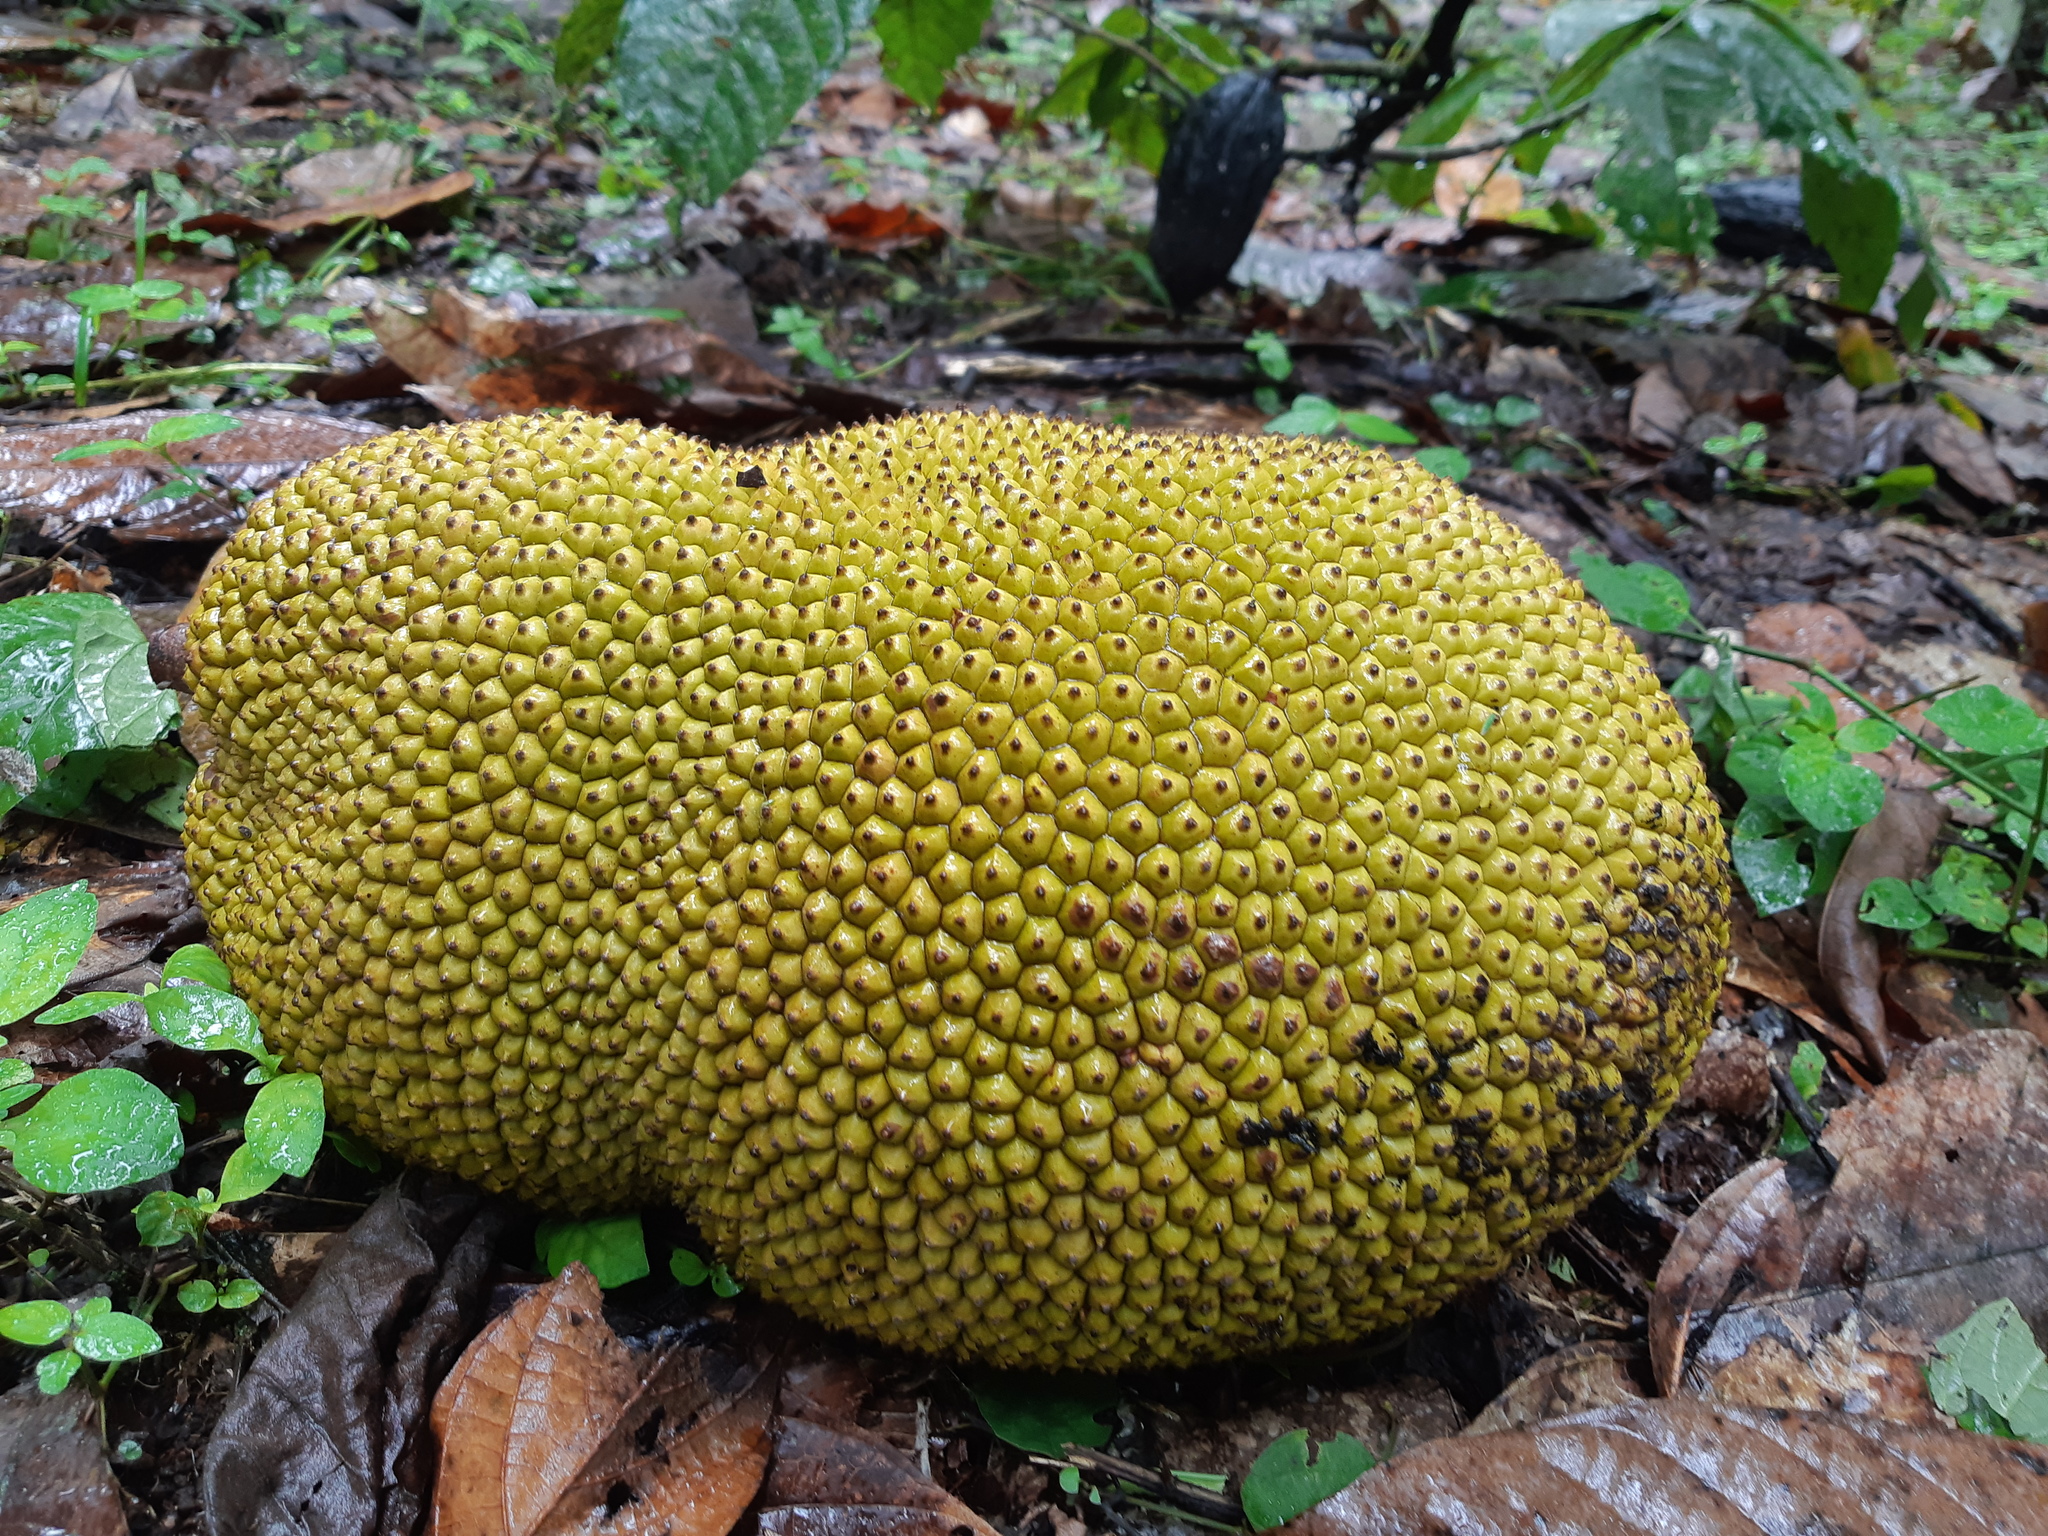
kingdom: Plantae
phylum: Tracheophyta
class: Magnoliopsida
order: Rosales
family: Moraceae
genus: Artocarpus
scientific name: Artocarpus heterophyllus
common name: Jackfruit
